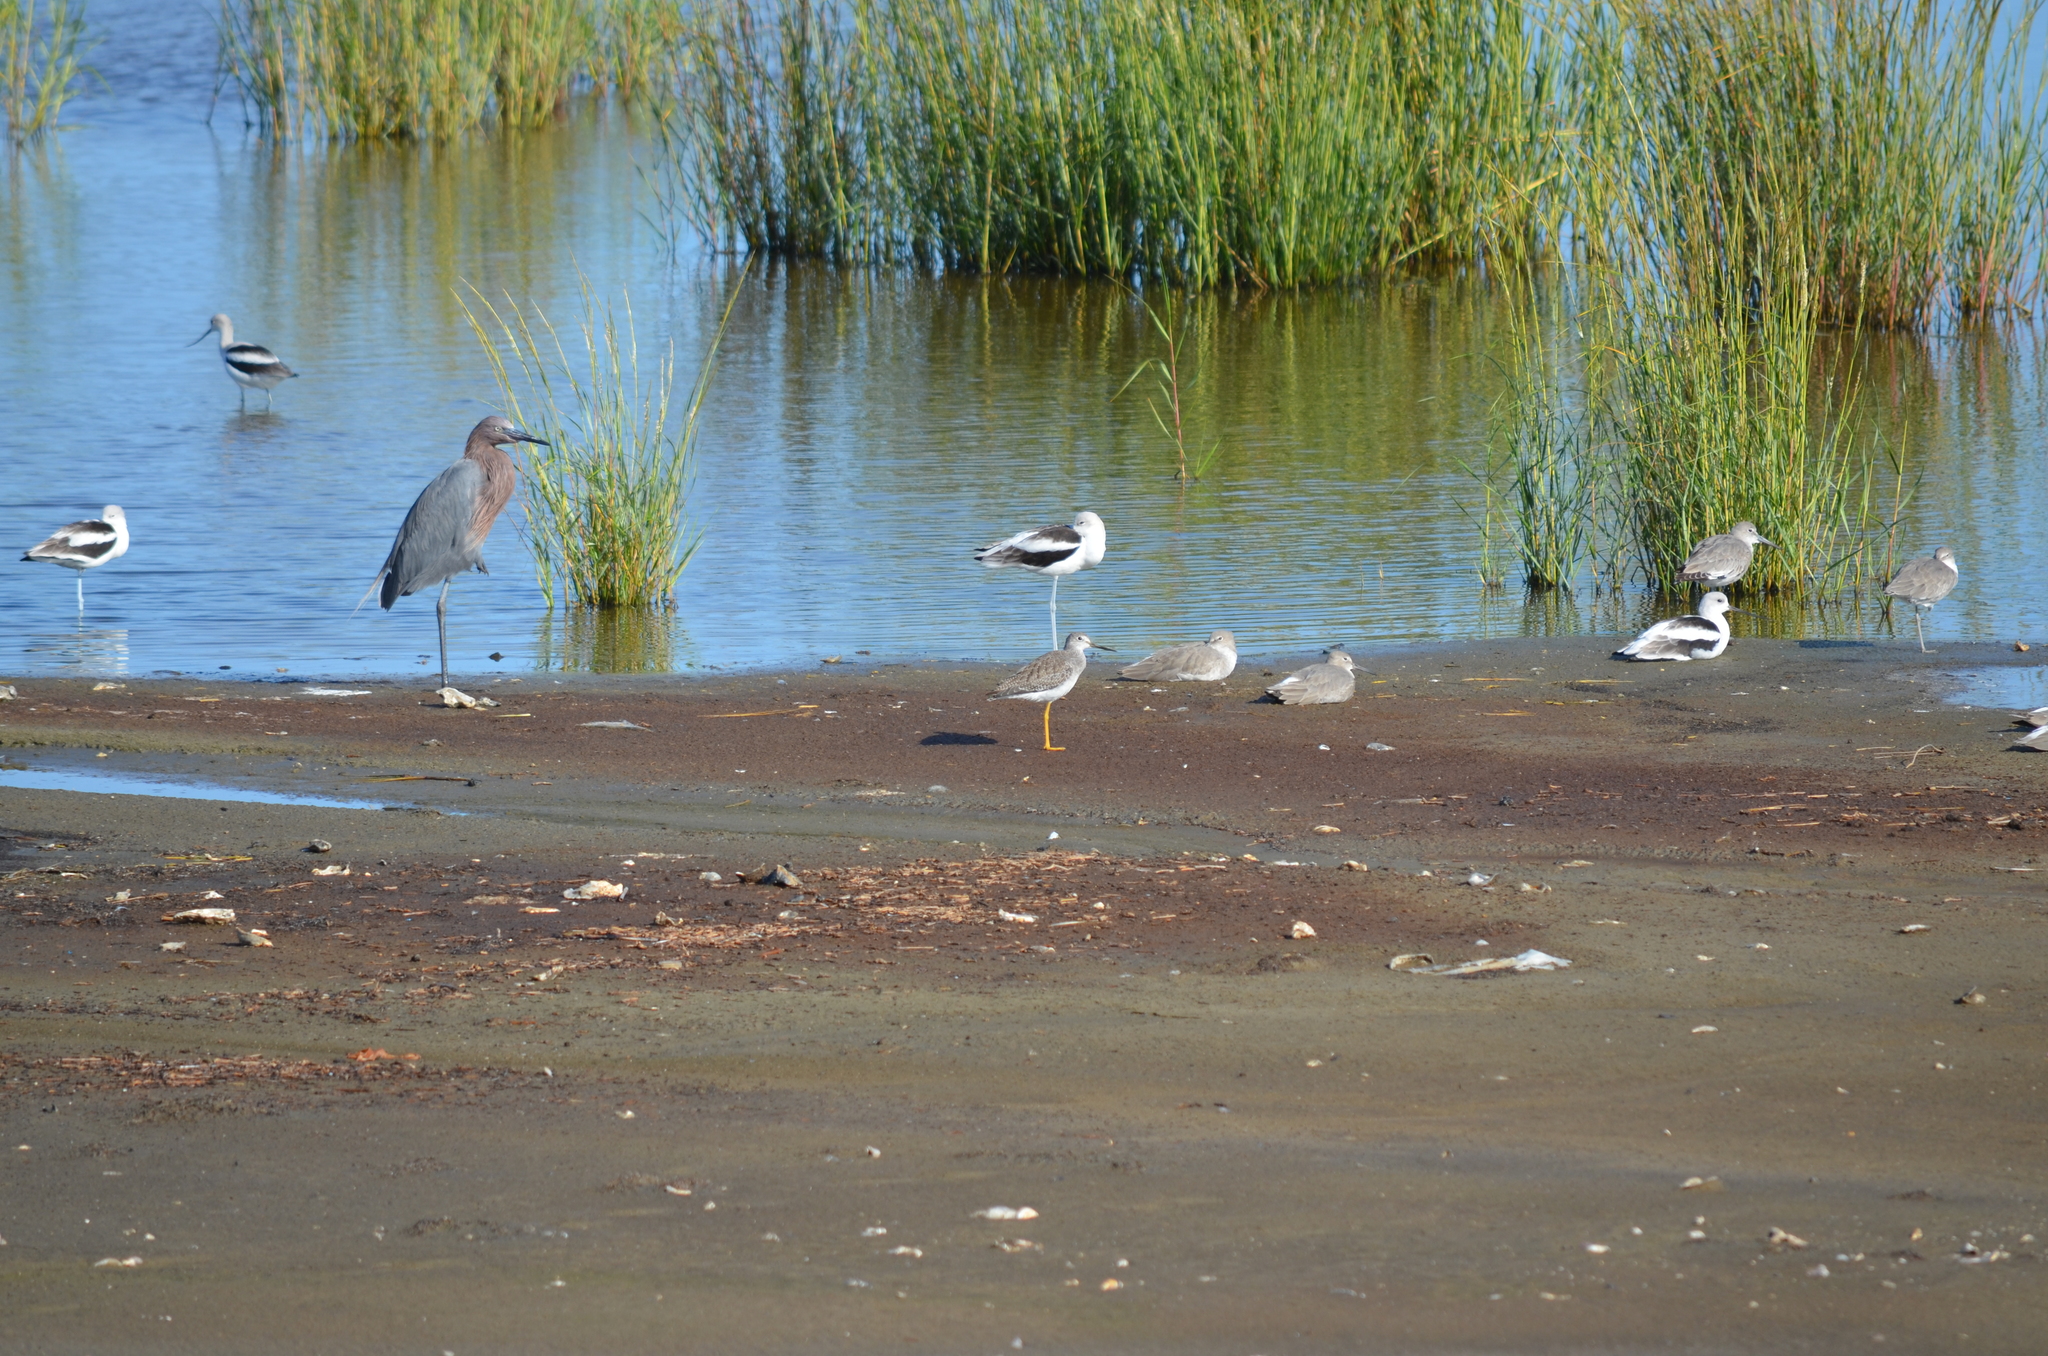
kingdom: Animalia
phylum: Chordata
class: Aves
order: Charadriiformes
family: Scolopacidae
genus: Tringa
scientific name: Tringa melanoleuca
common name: Greater yellowlegs
